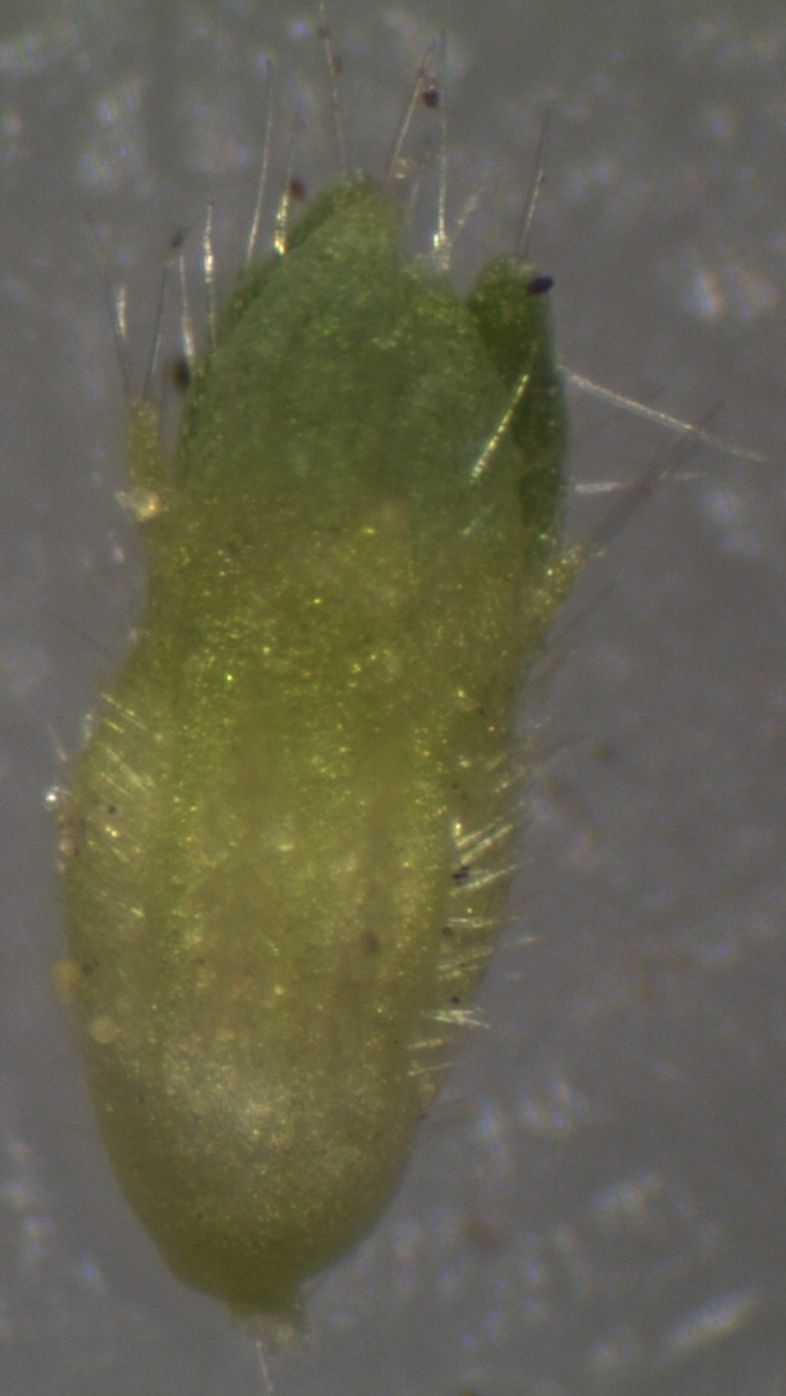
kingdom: Plantae
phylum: Tracheophyta
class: Magnoliopsida
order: Rosales
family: Rosaceae
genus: Aphanes
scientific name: Aphanes australis
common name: Slender parsley-piert
